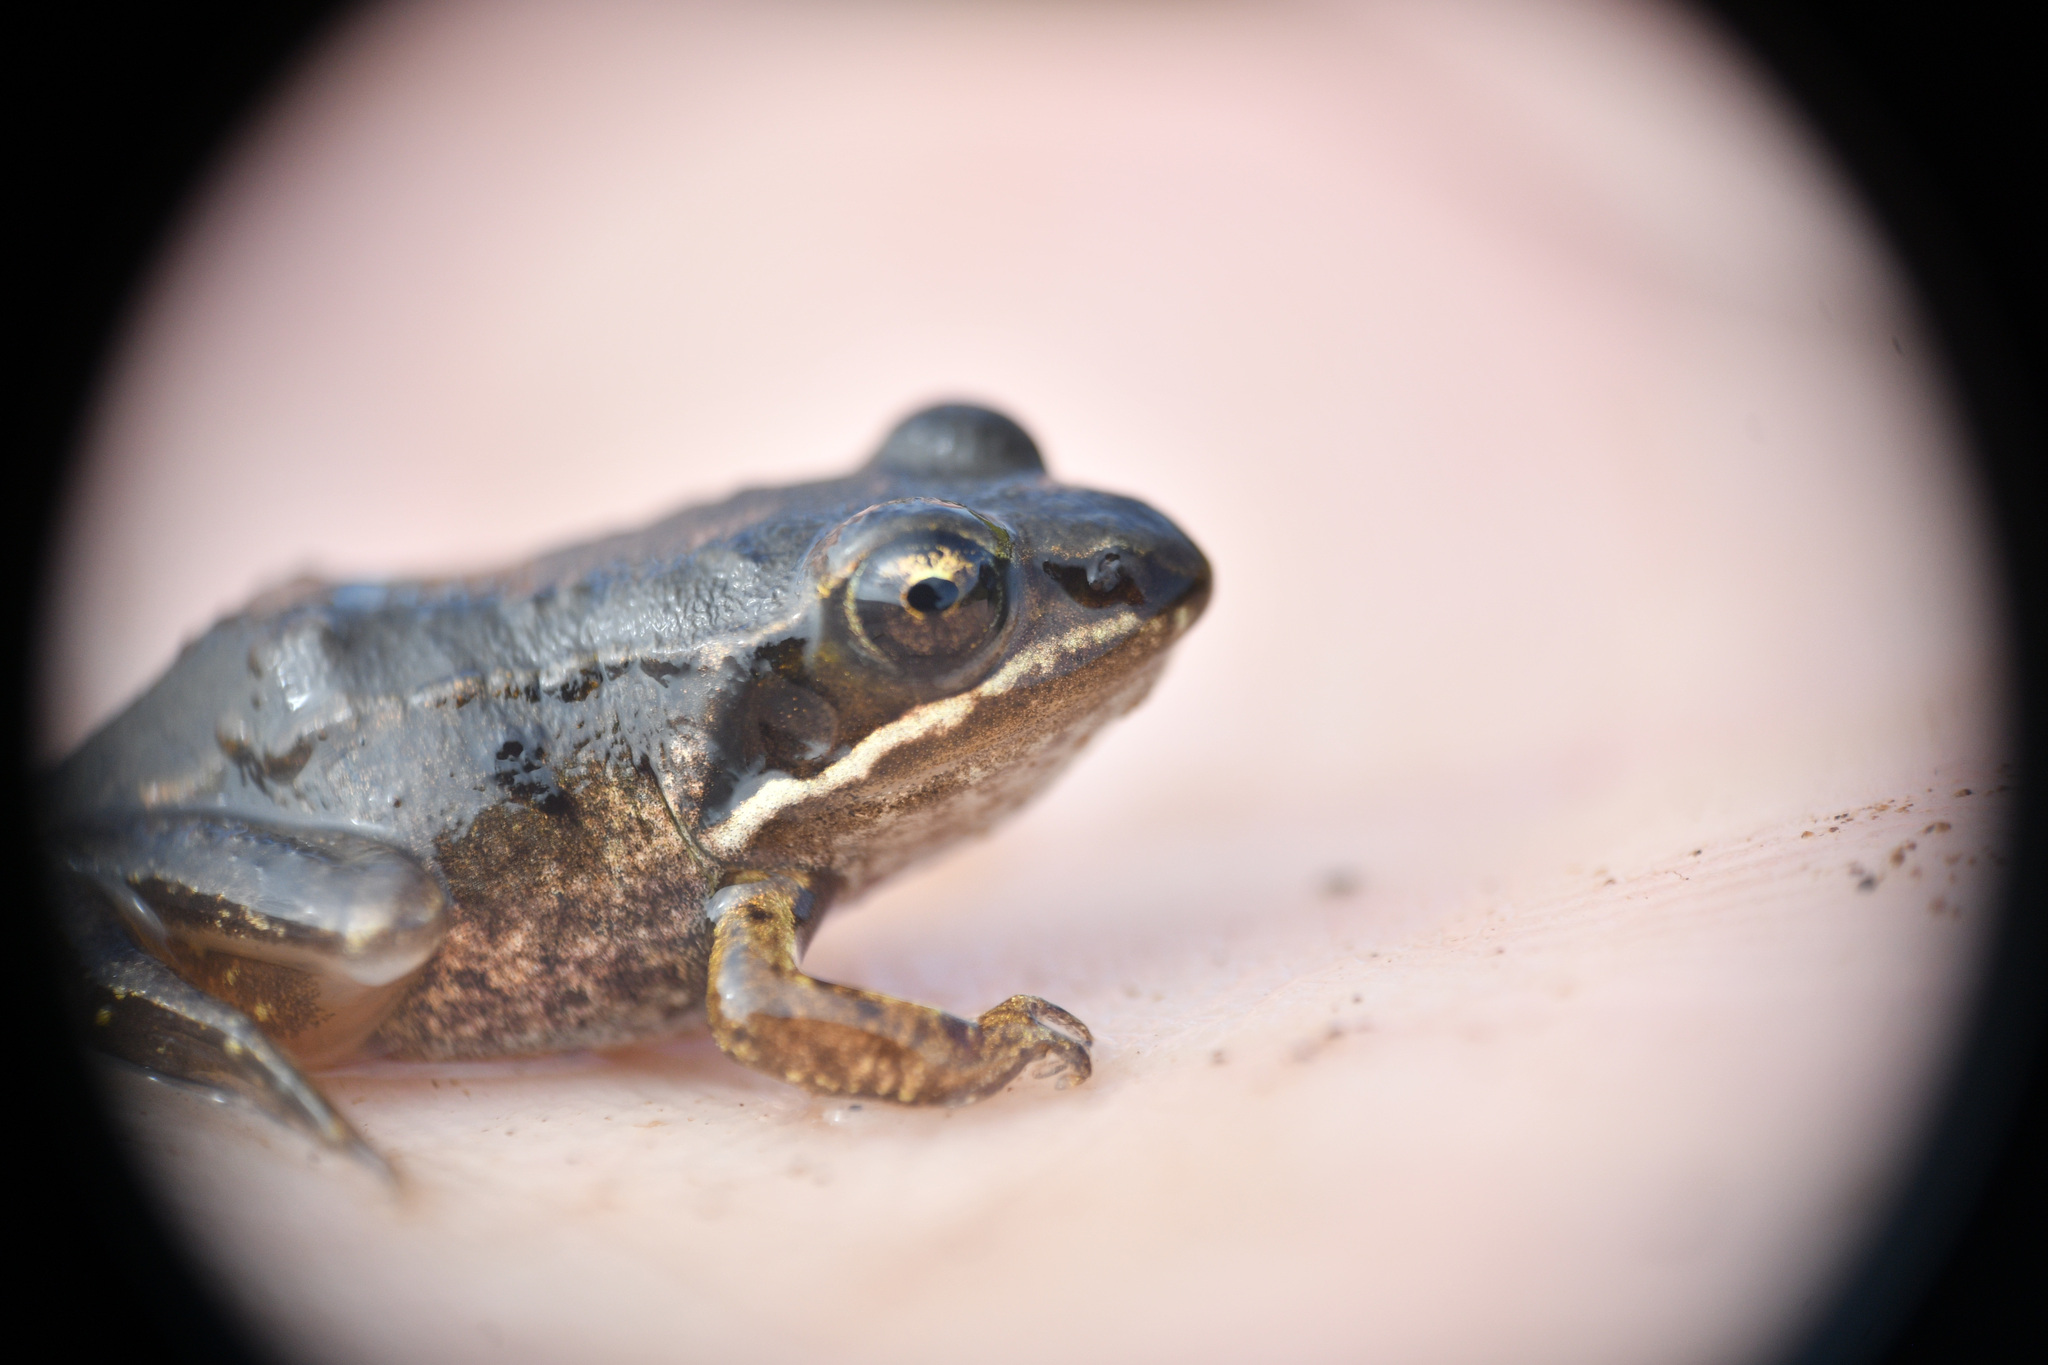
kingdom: Animalia
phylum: Chordata
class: Amphibia
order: Anura
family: Ranidae
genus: Lithobates
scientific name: Lithobates sylvaticus
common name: Wood frog
